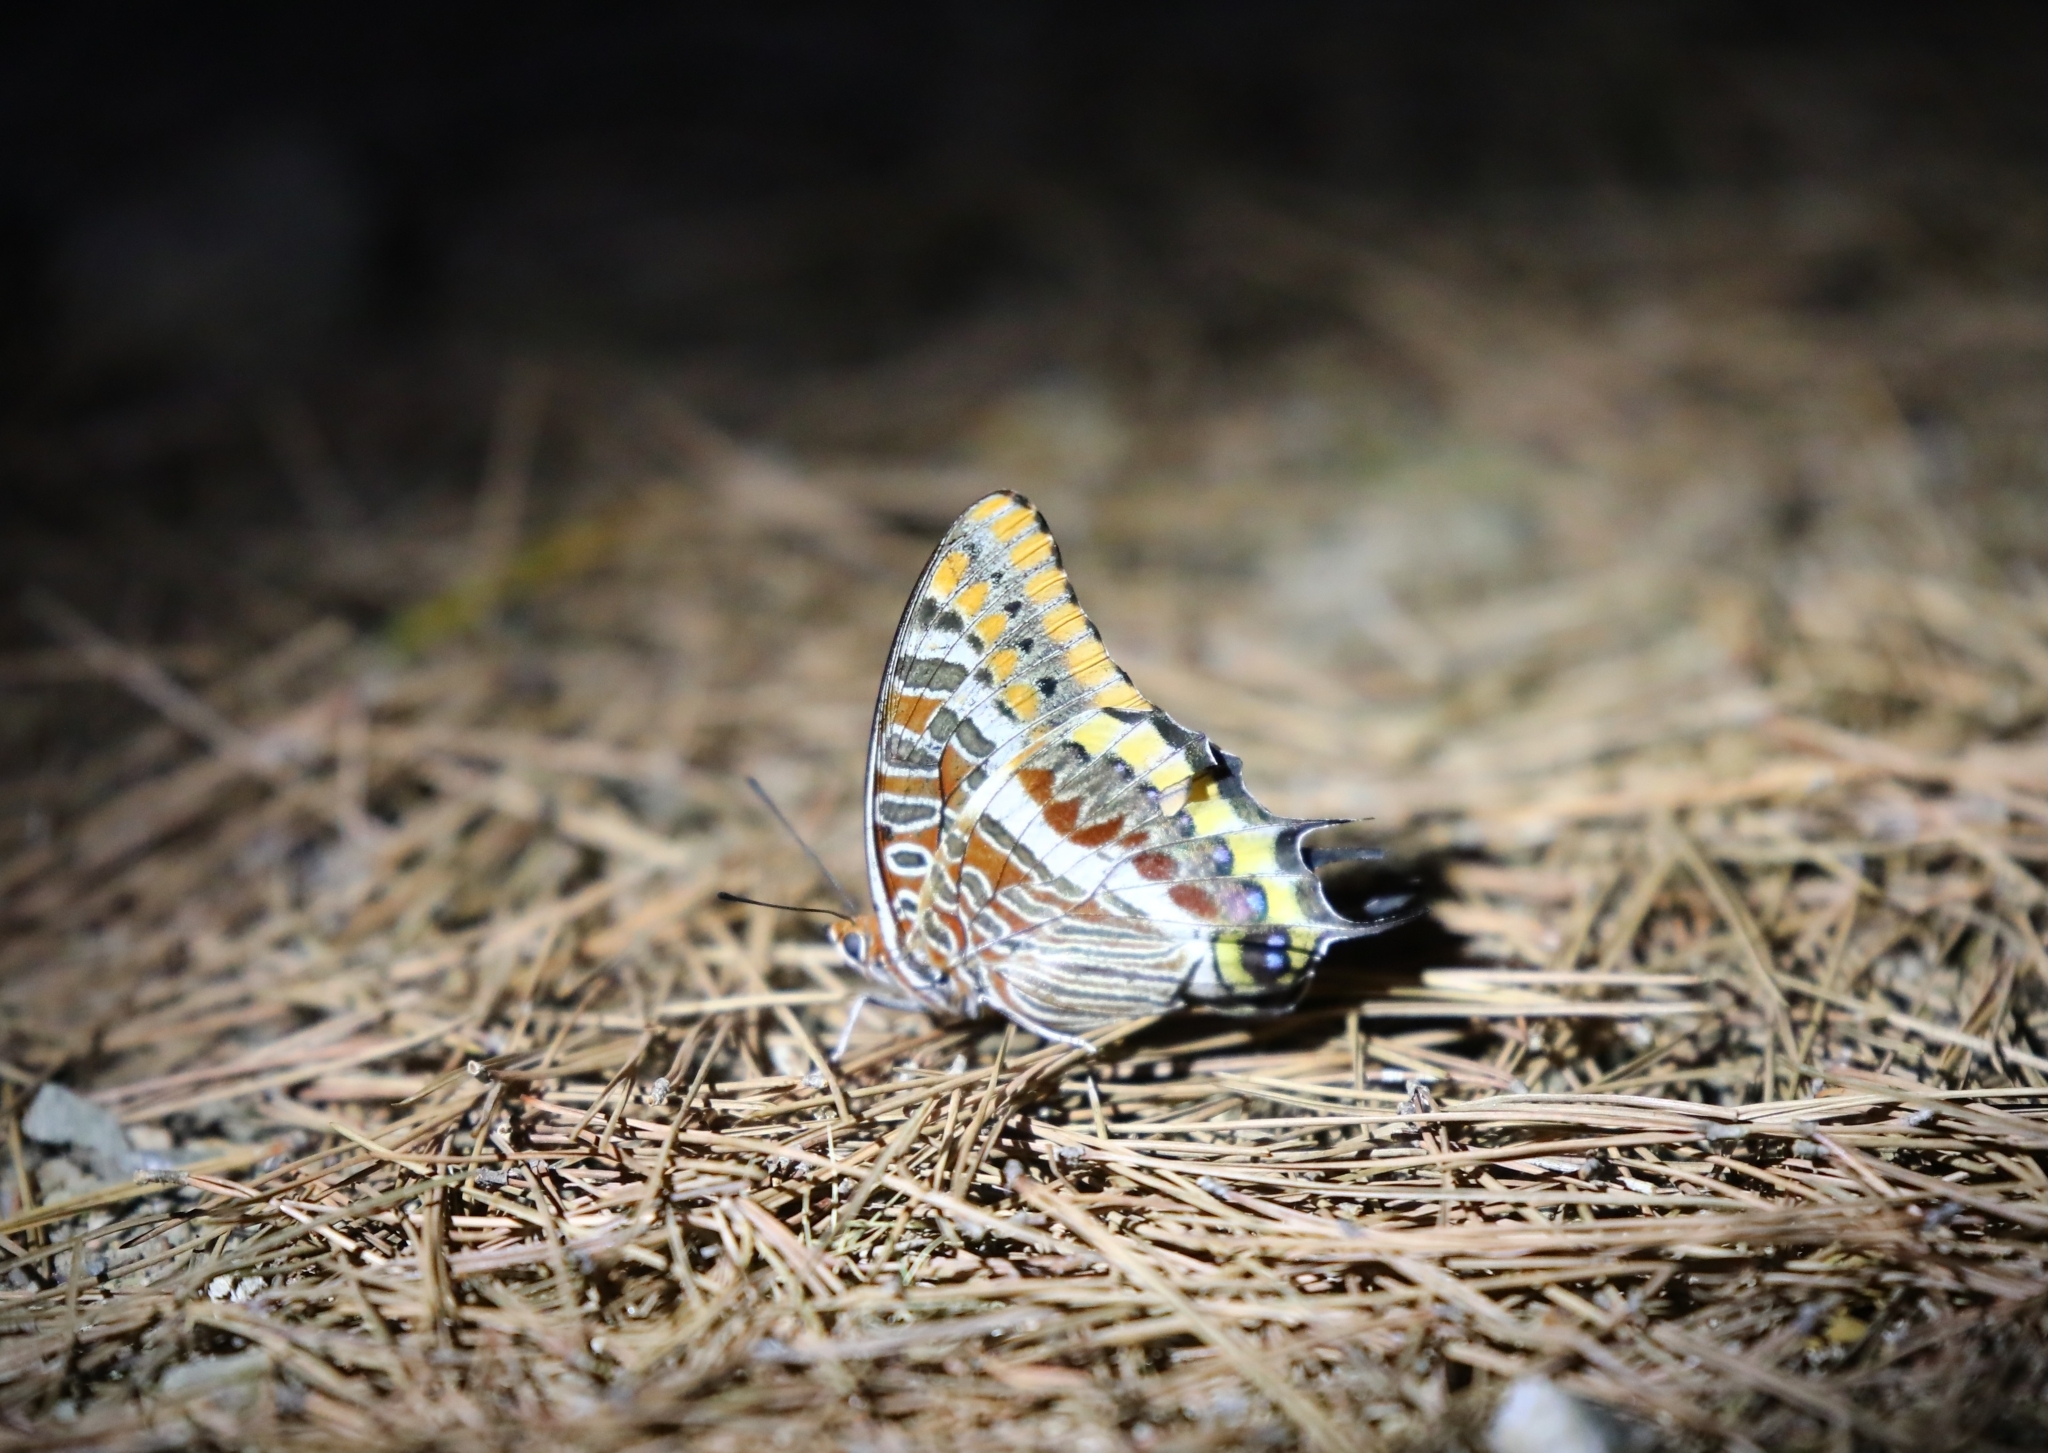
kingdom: Animalia
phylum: Arthropoda
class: Insecta
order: Lepidoptera
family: Nymphalidae
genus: Charaxes
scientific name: Charaxes jasius
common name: Two tailed pasha
